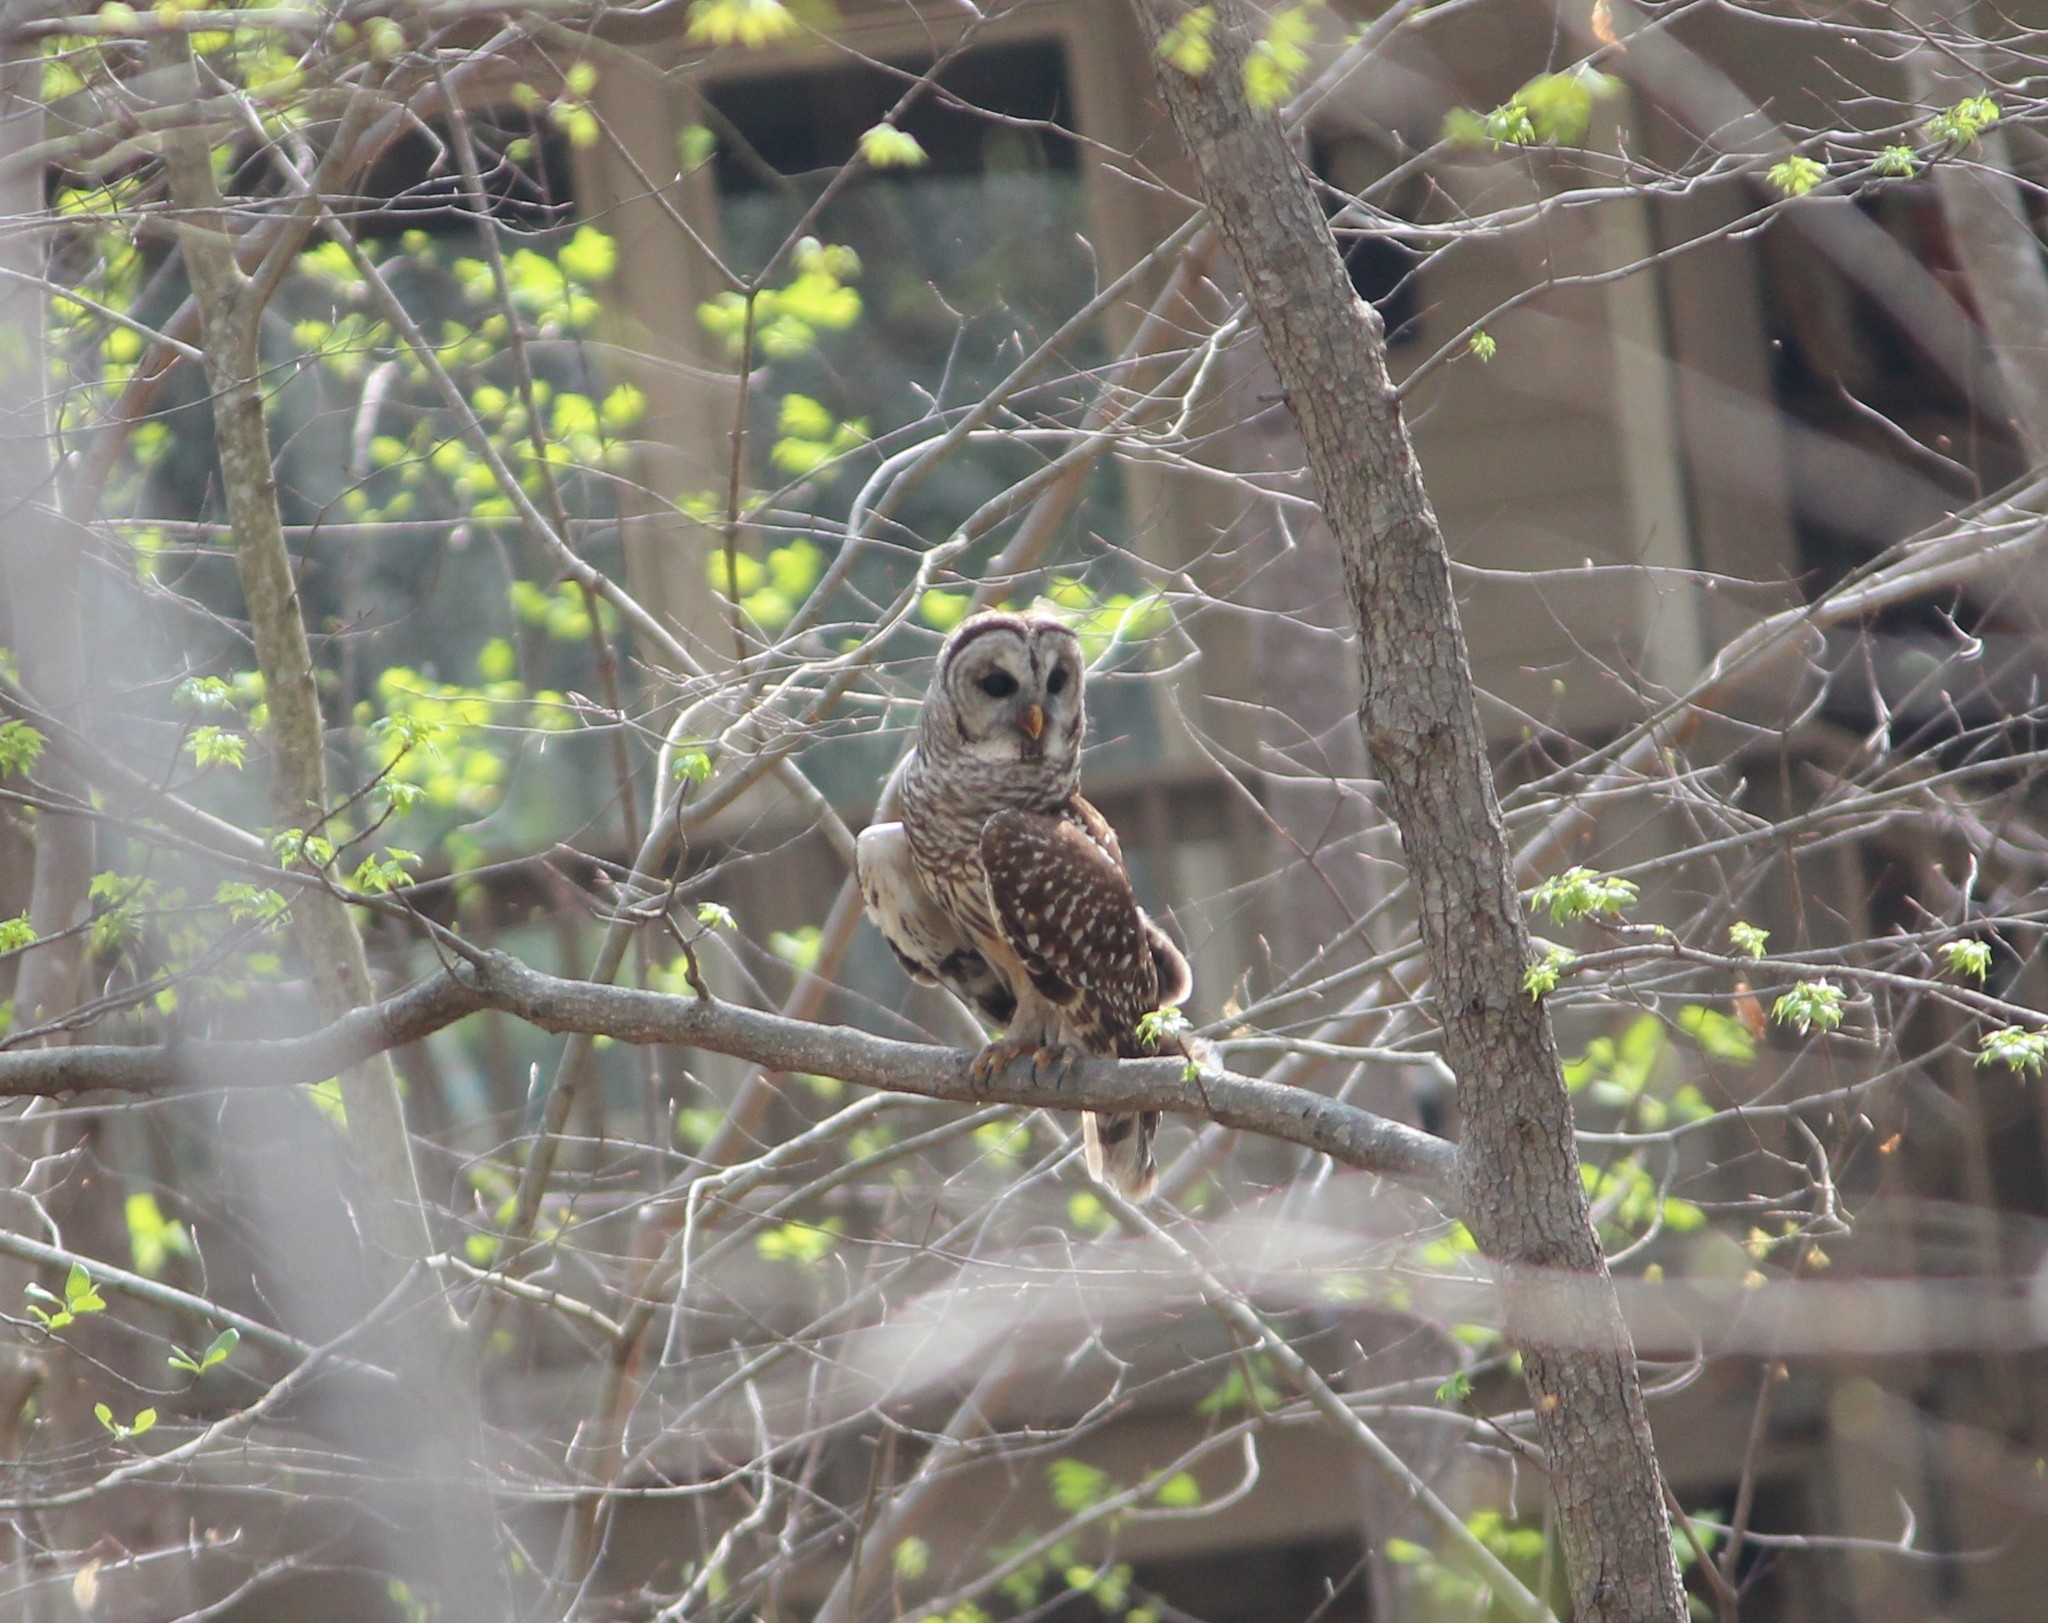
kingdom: Animalia
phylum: Chordata
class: Aves
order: Strigiformes
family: Strigidae
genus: Strix
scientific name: Strix varia
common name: Barred owl
